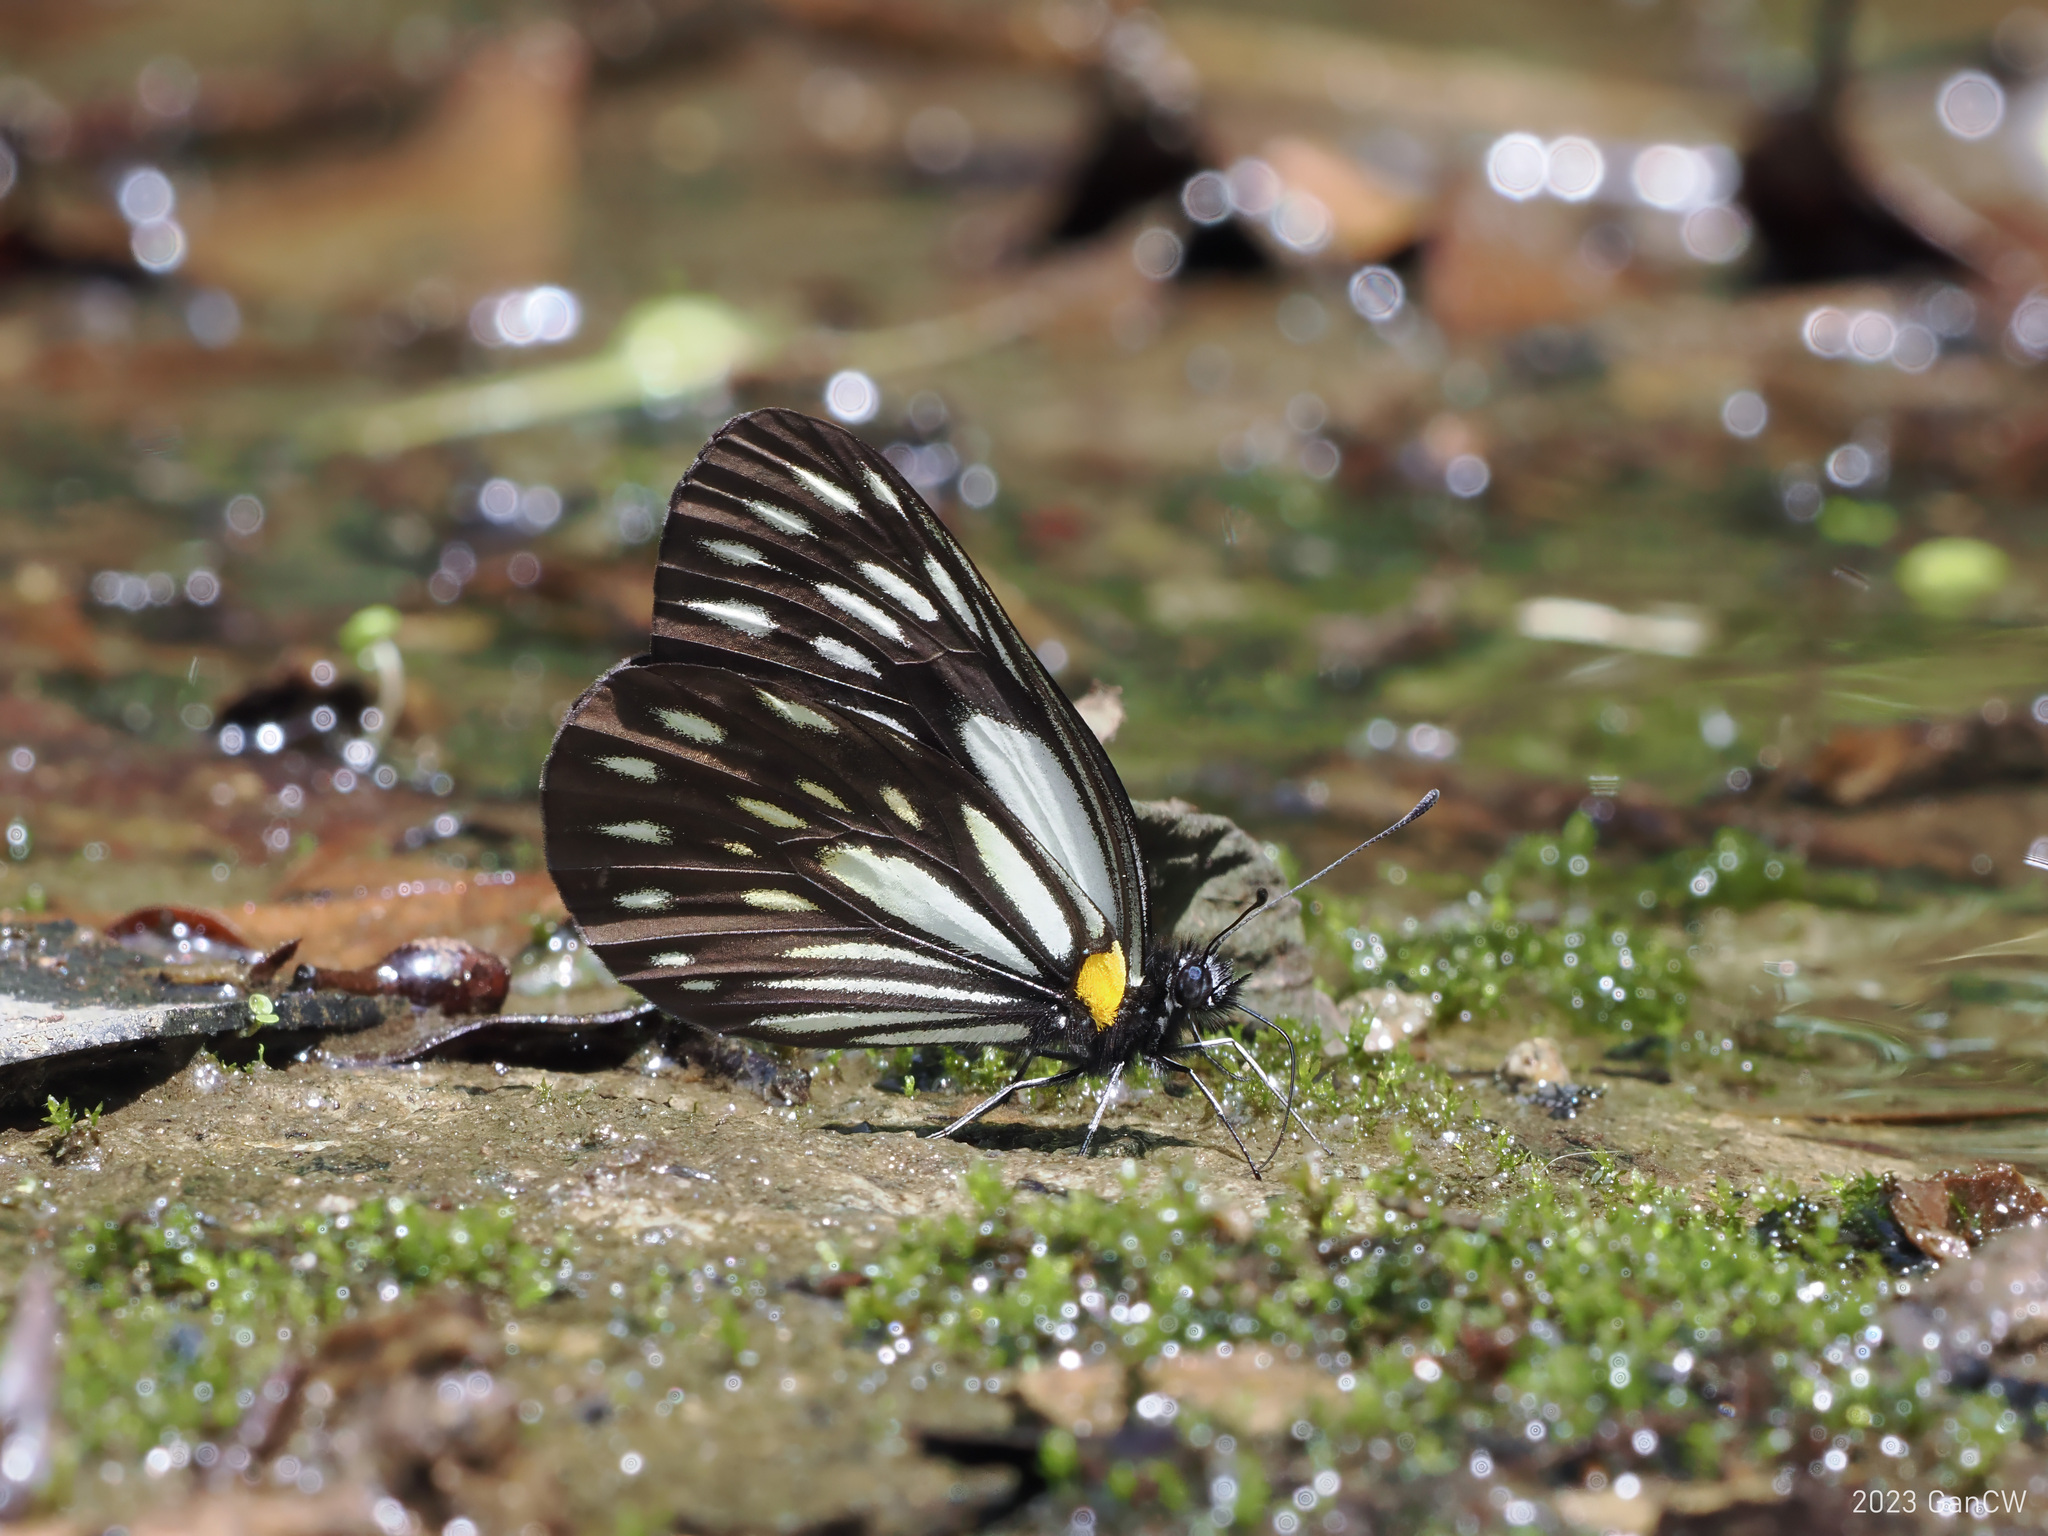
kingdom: Animalia
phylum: Arthropoda
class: Insecta
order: Lepidoptera
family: Pieridae
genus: Aporia
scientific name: Aporia agathon
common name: Great blackvein
